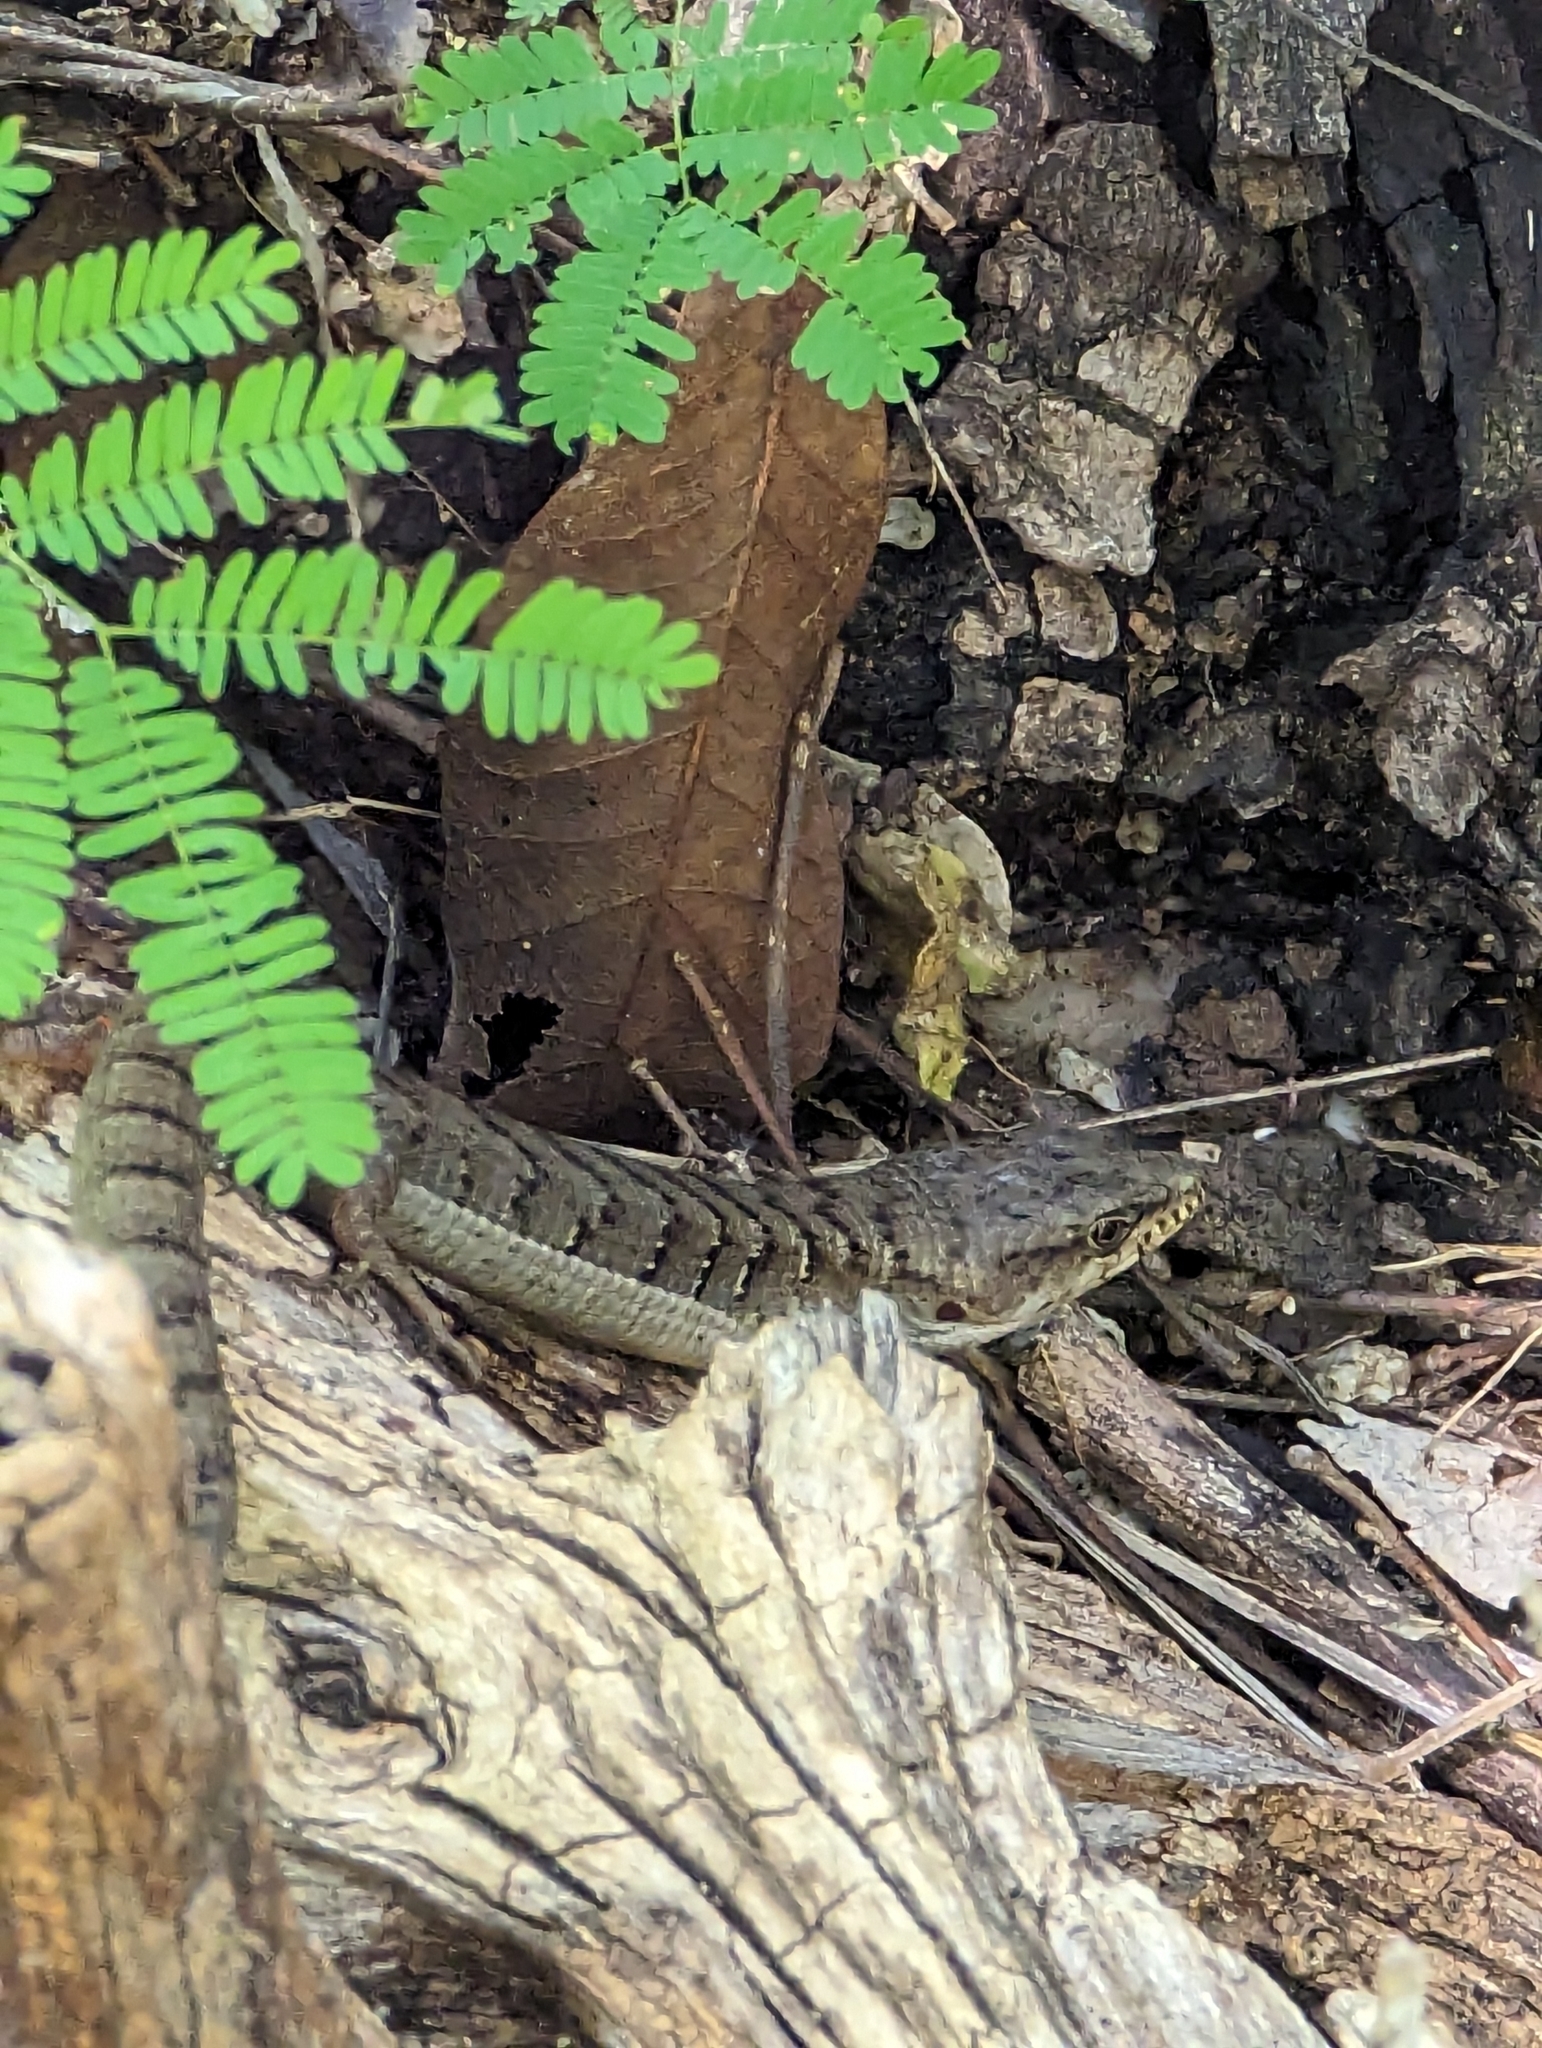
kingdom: Animalia
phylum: Chordata
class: Squamata
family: Anguidae
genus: Elgaria
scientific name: Elgaria paucicarinata
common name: San lucan alligator lizard
